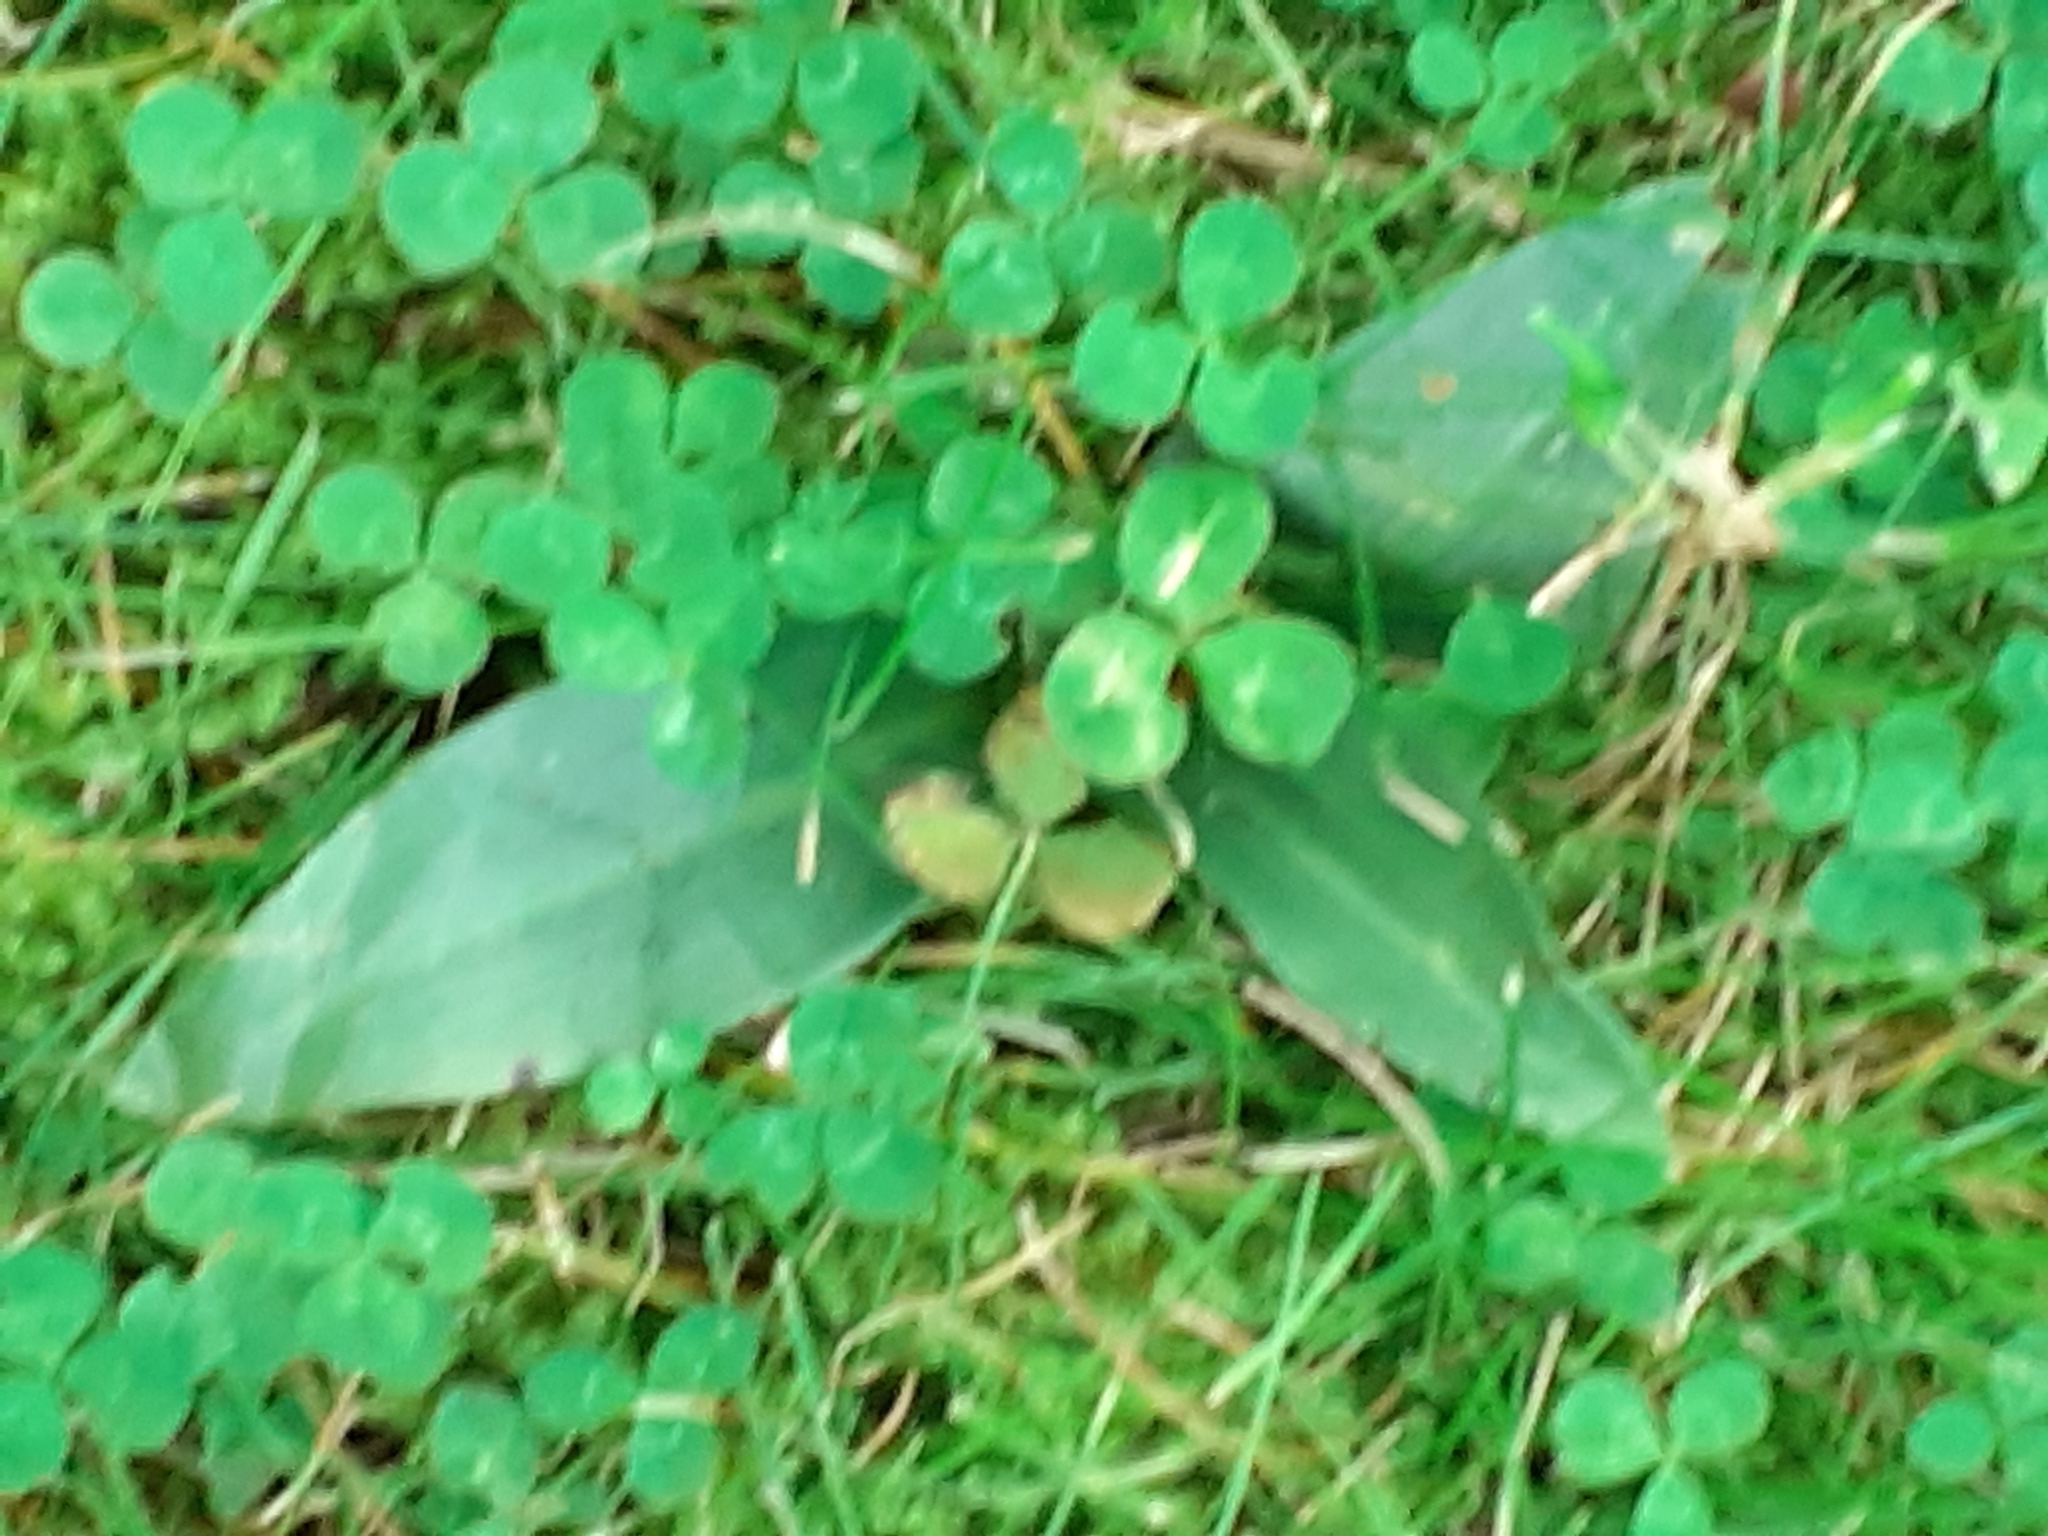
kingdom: Plantae
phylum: Tracheophyta
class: Liliopsida
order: Asparagales
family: Orchidaceae
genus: Ophrys
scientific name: Ophrys apifera
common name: Bee orchid
